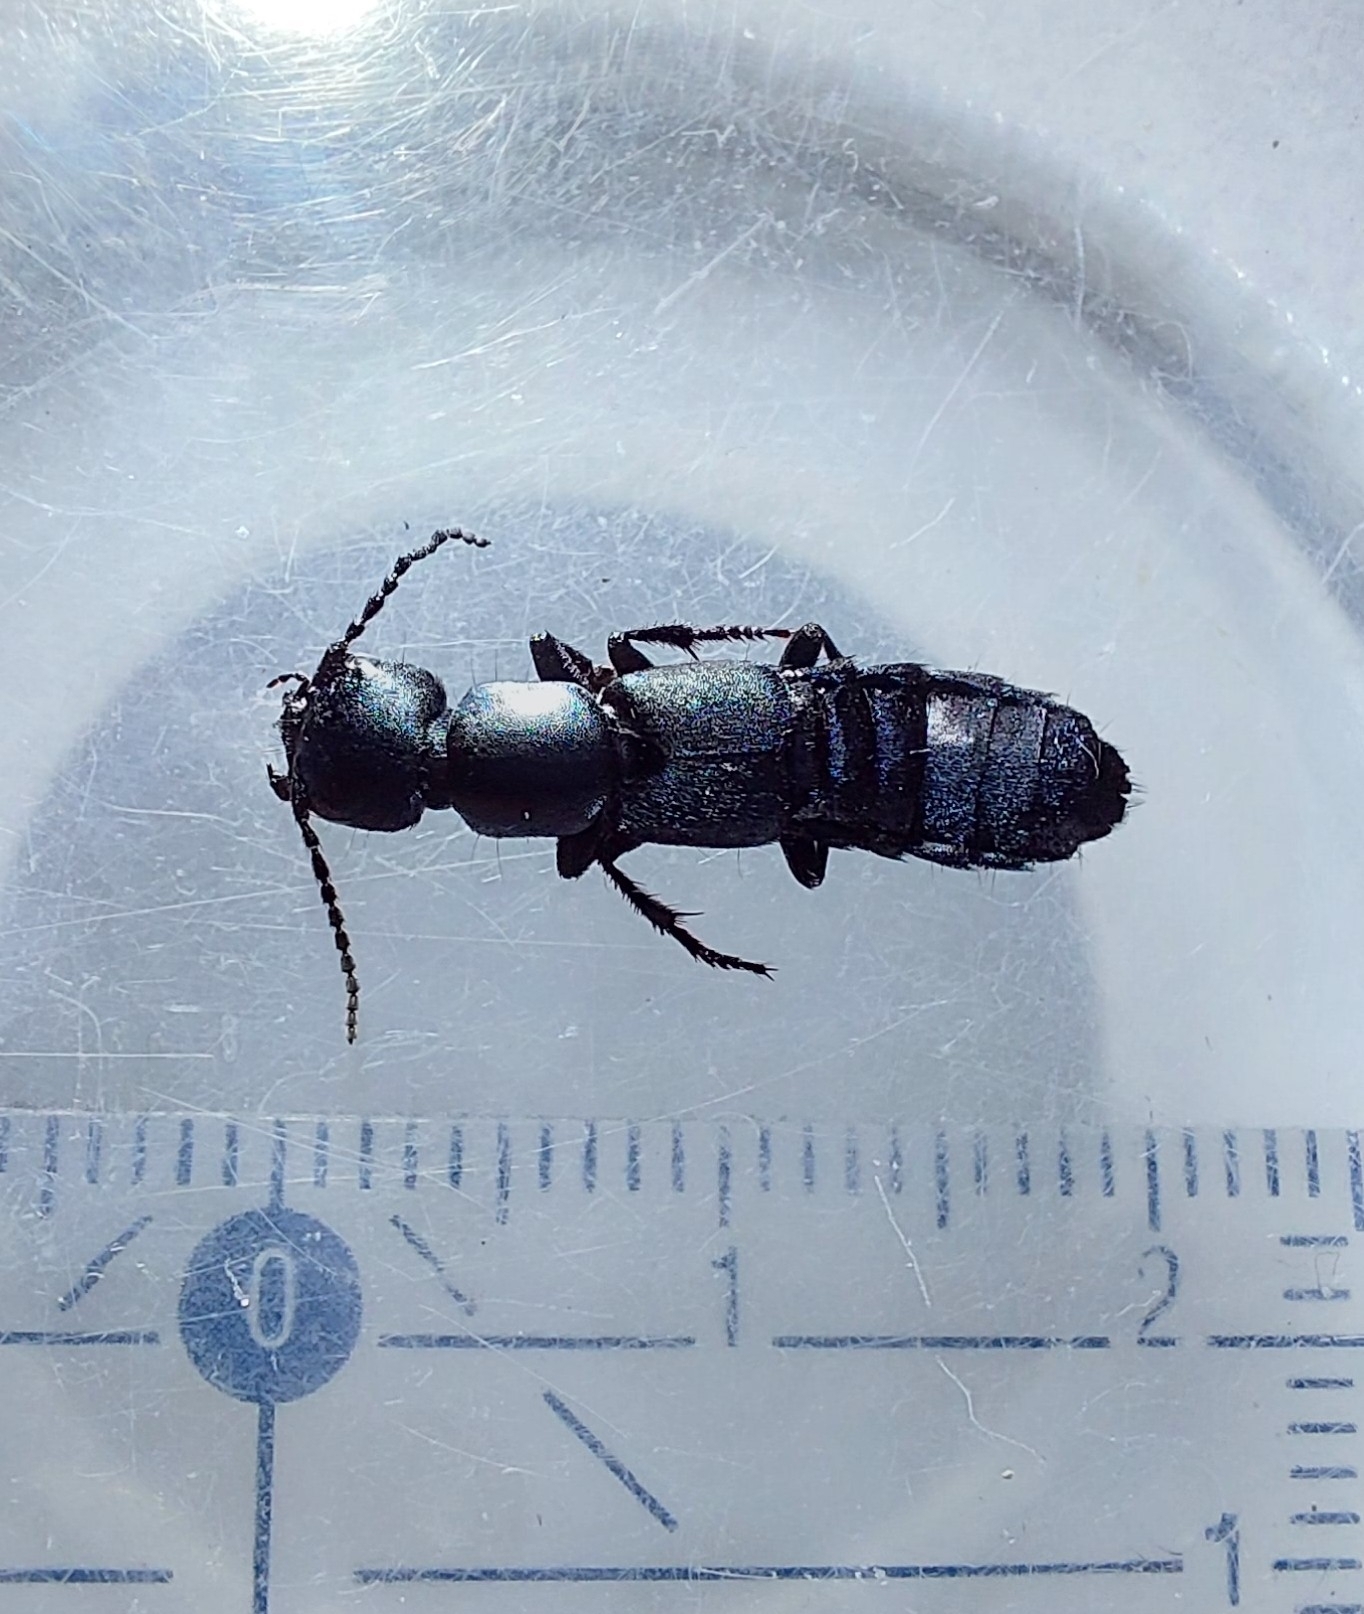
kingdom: Animalia
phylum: Arthropoda
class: Insecta
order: Coleoptera
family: Staphylinidae
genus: Ocypus
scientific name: Ocypus ophthalmicus
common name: Blue rove-beetle
